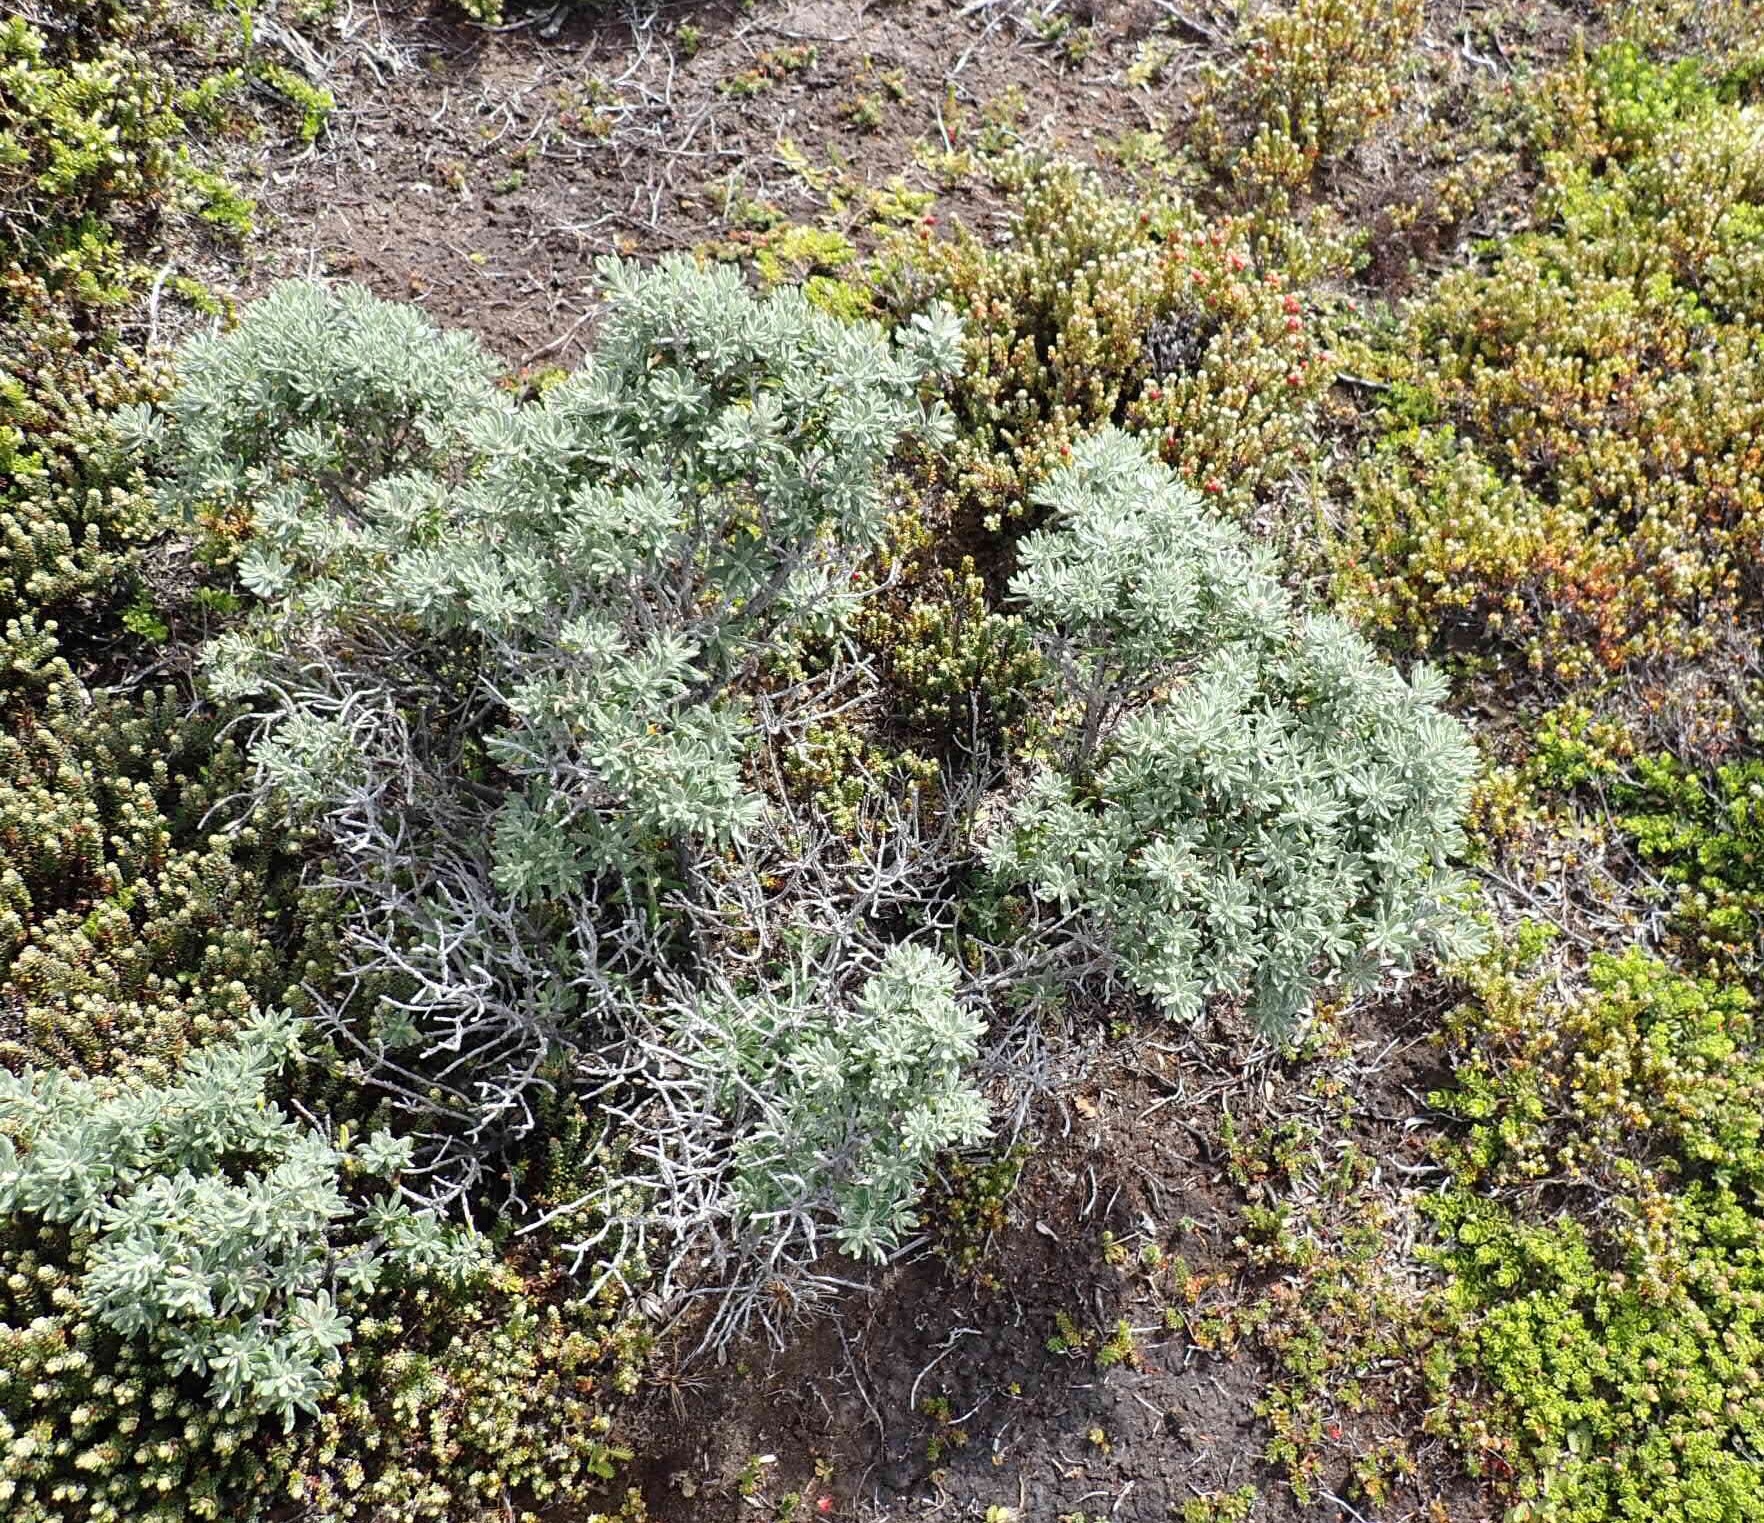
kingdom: Plantae
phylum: Tracheophyta
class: Magnoliopsida
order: Asterales
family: Asteraceae
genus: Chiliotrichum
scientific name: Chiliotrichum diffusum
